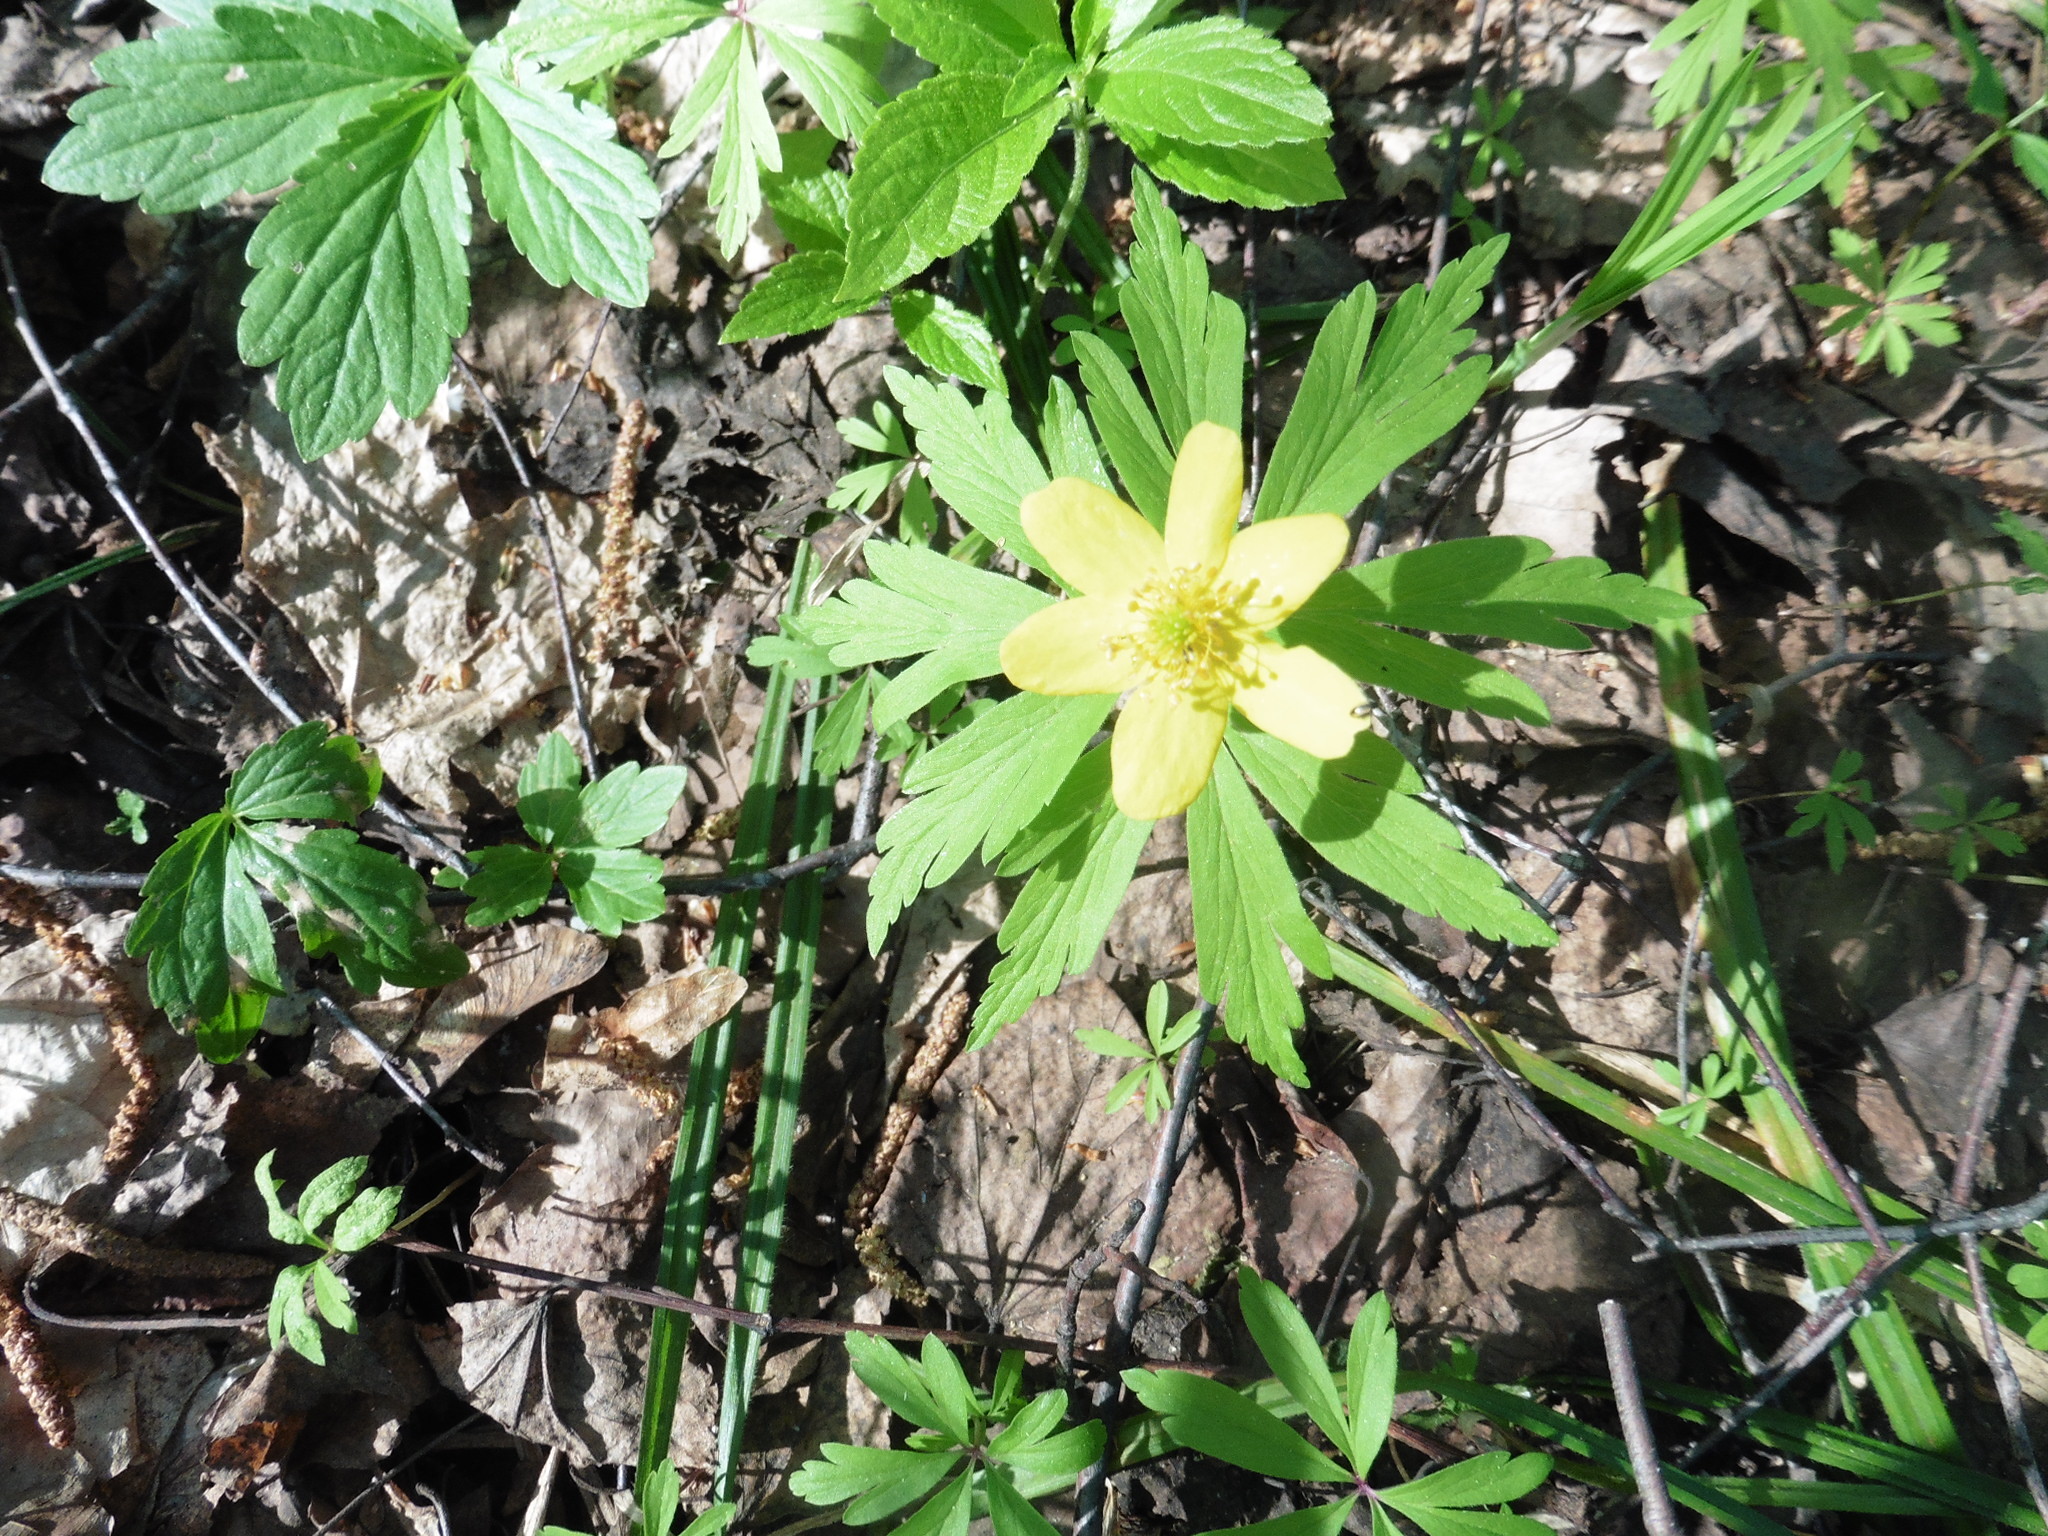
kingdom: Plantae
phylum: Tracheophyta
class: Magnoliopsida
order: Ranunculales
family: Ranunculaceae
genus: Anemone
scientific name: Anemone ranunculoides
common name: Yellow anemone
